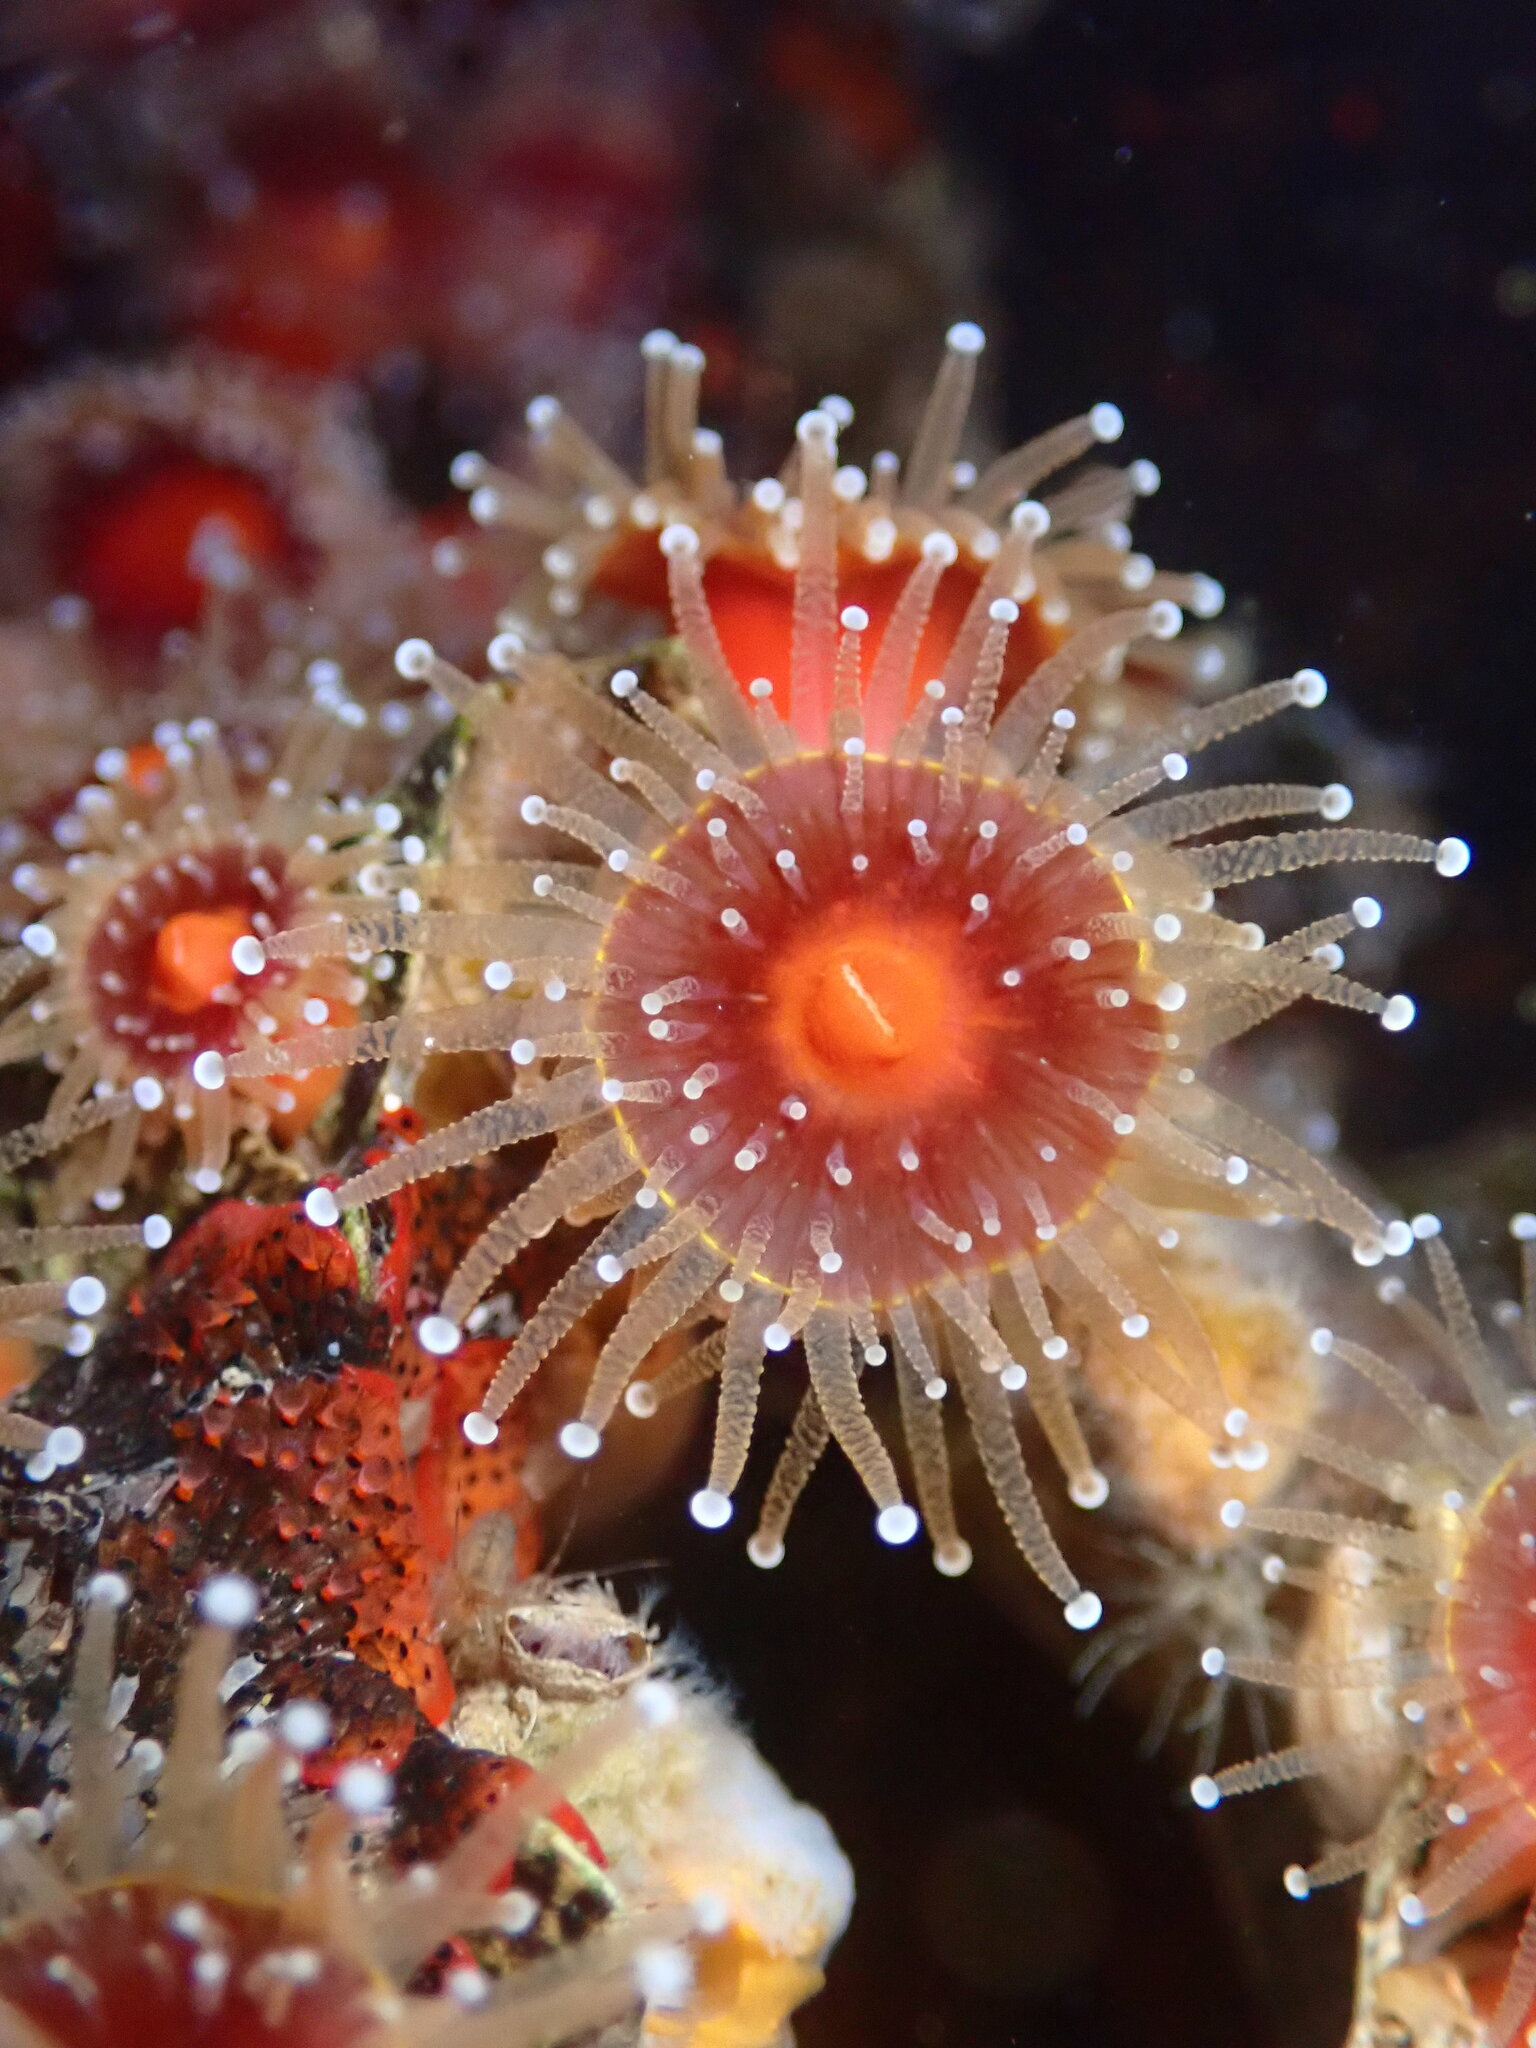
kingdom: Animalia
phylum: Cnidaria
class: Anthozoa
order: Corallimorpharia
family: Corallimorphidae
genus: Corynactis
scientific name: Corynactis californica
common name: Strawberry corallimorpharian
